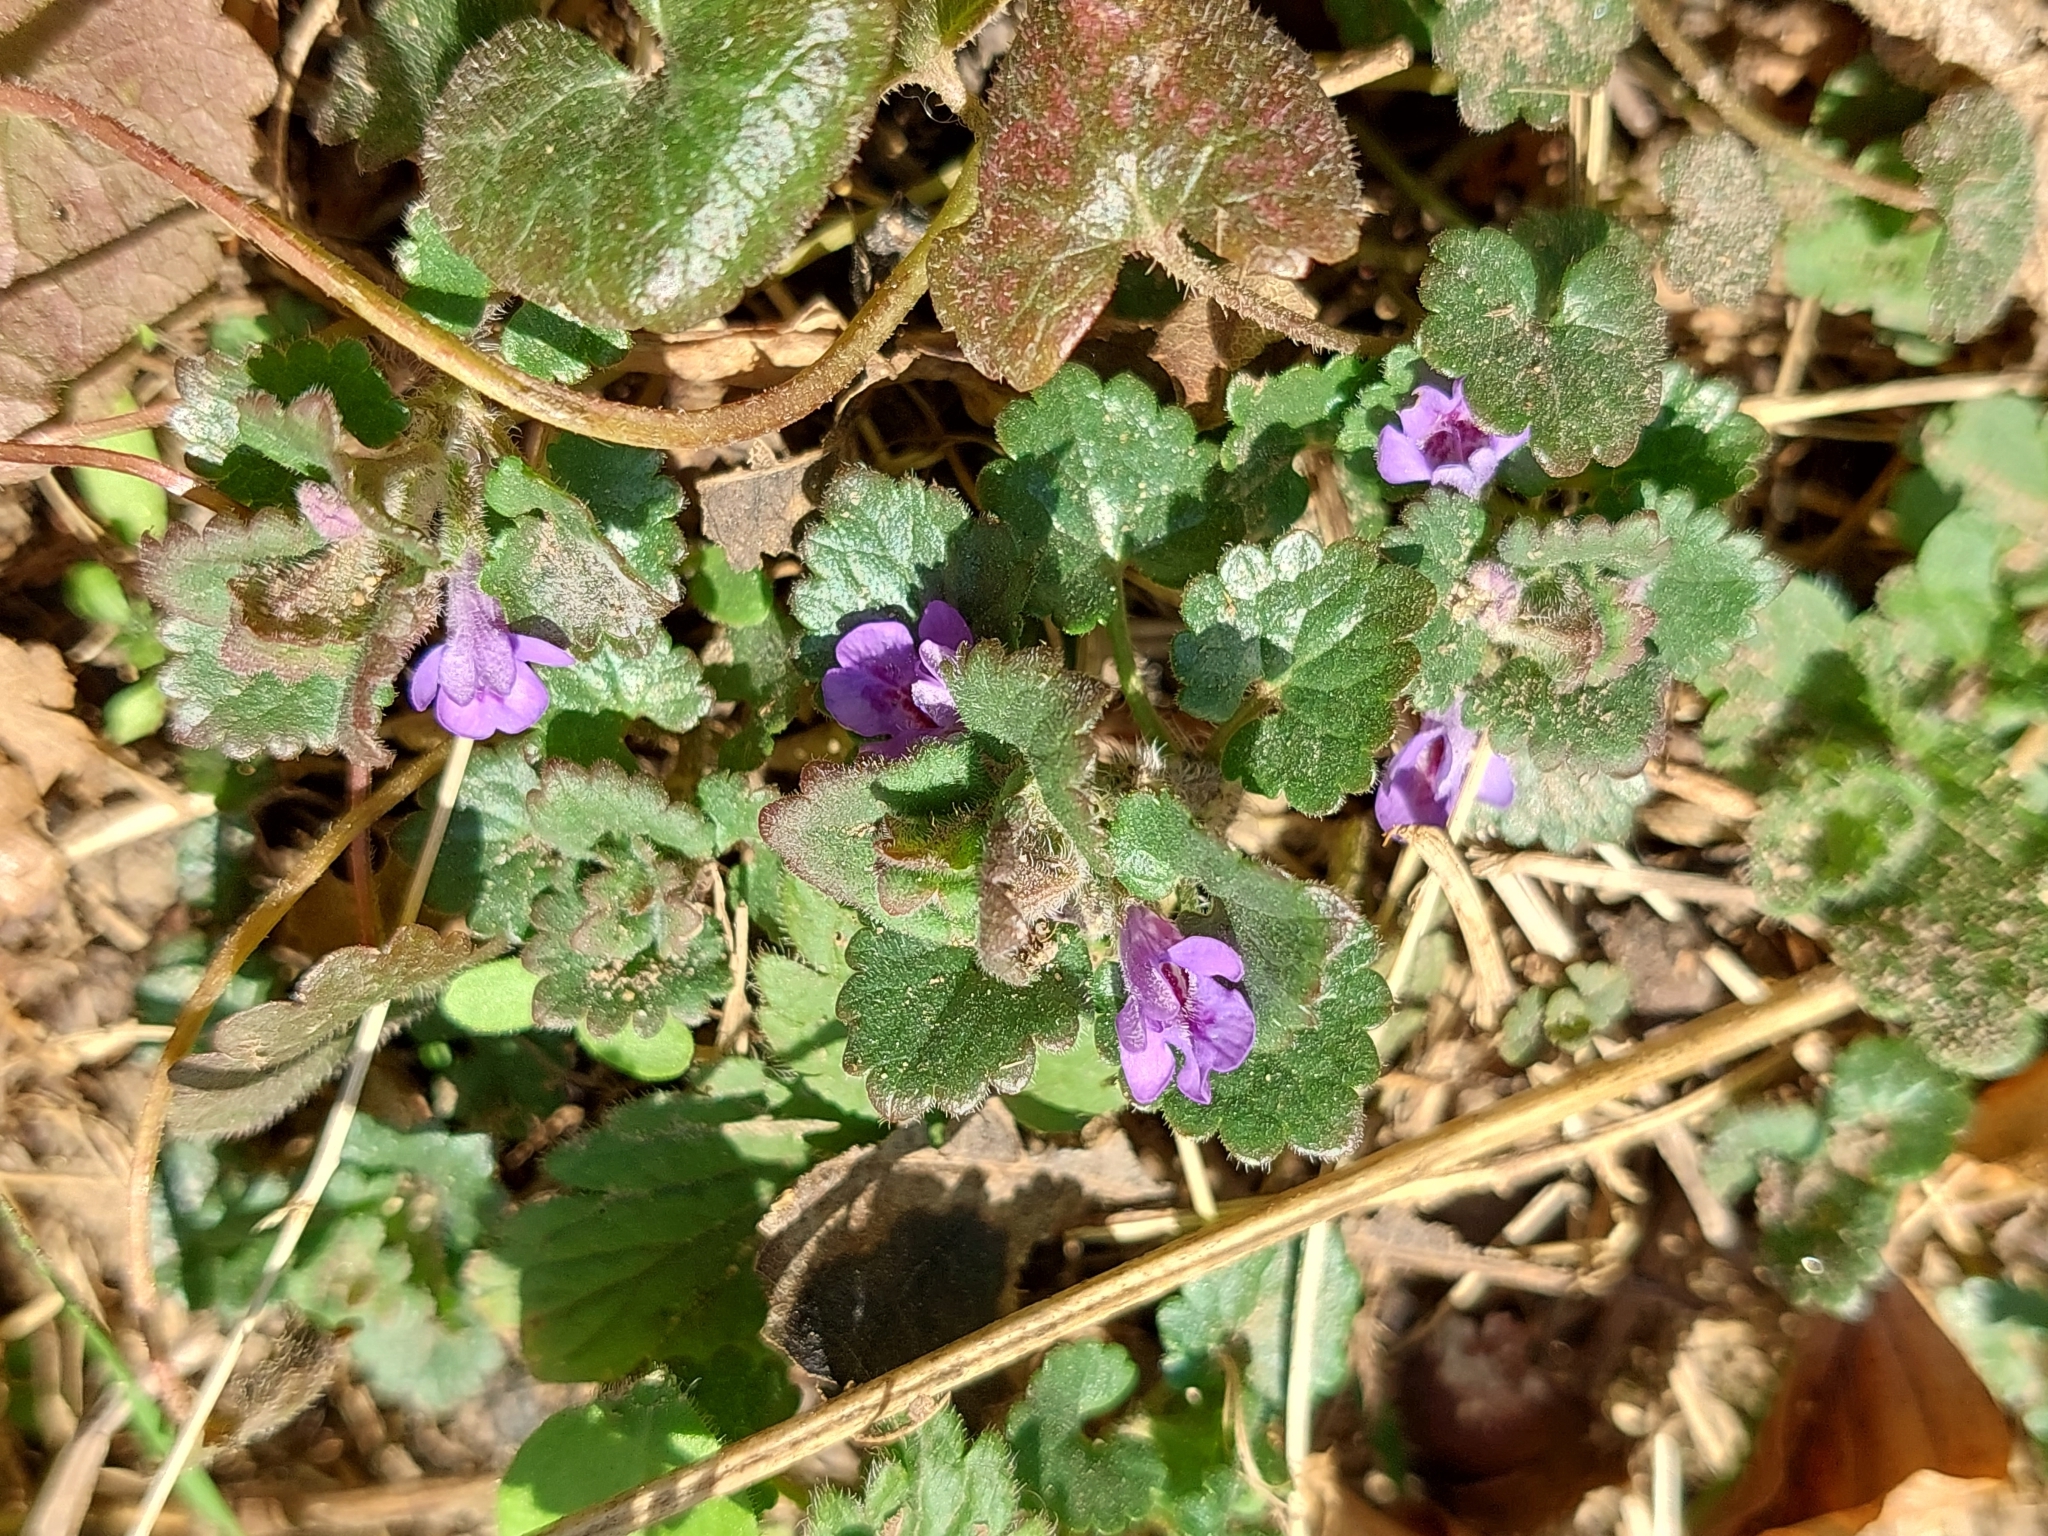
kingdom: Plantae
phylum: Tracheophyta
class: Magnoliopsida
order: Lamiales
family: Lamiaceae
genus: Glechoma
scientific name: Glechoma hederacea
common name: Ground ivy
